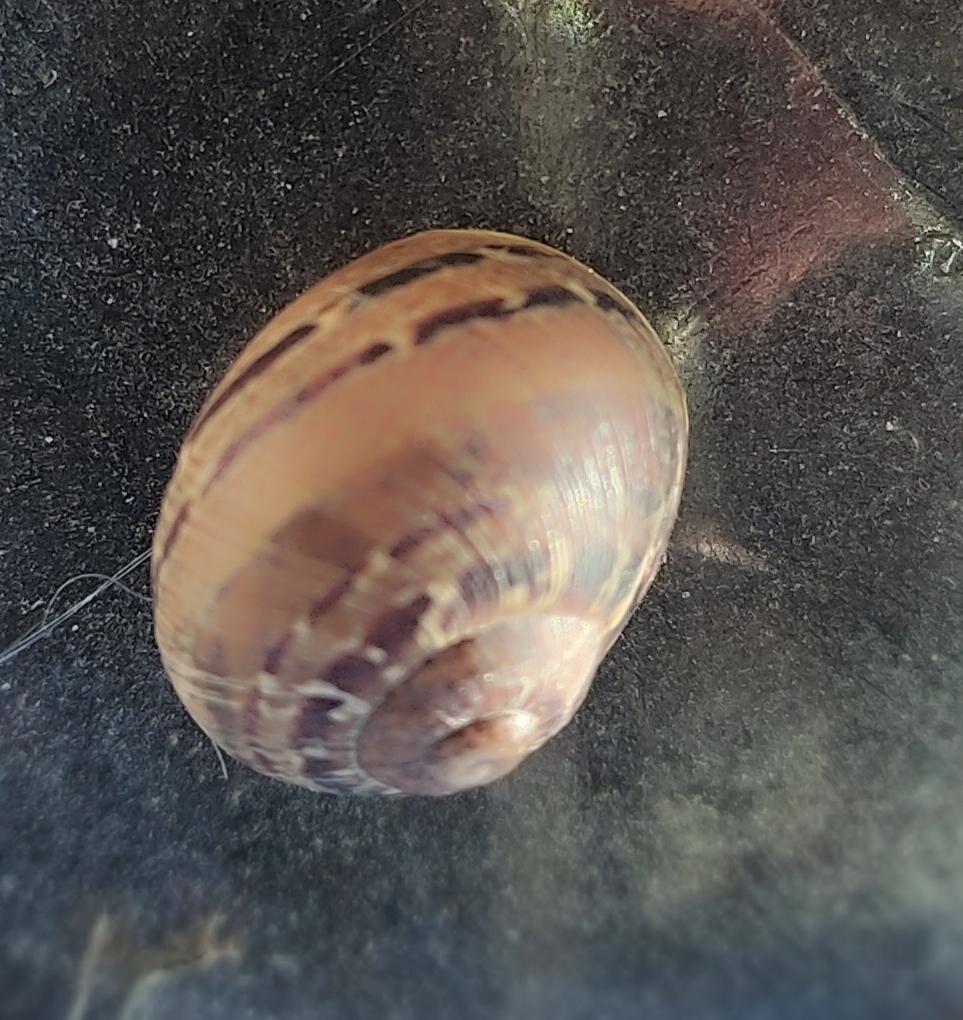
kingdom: Animalia
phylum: Mollusca
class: Gastropoda
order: Stylommatophora
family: Helicidae
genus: Cornu
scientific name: Cornu aspersum
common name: Brown garden snail
